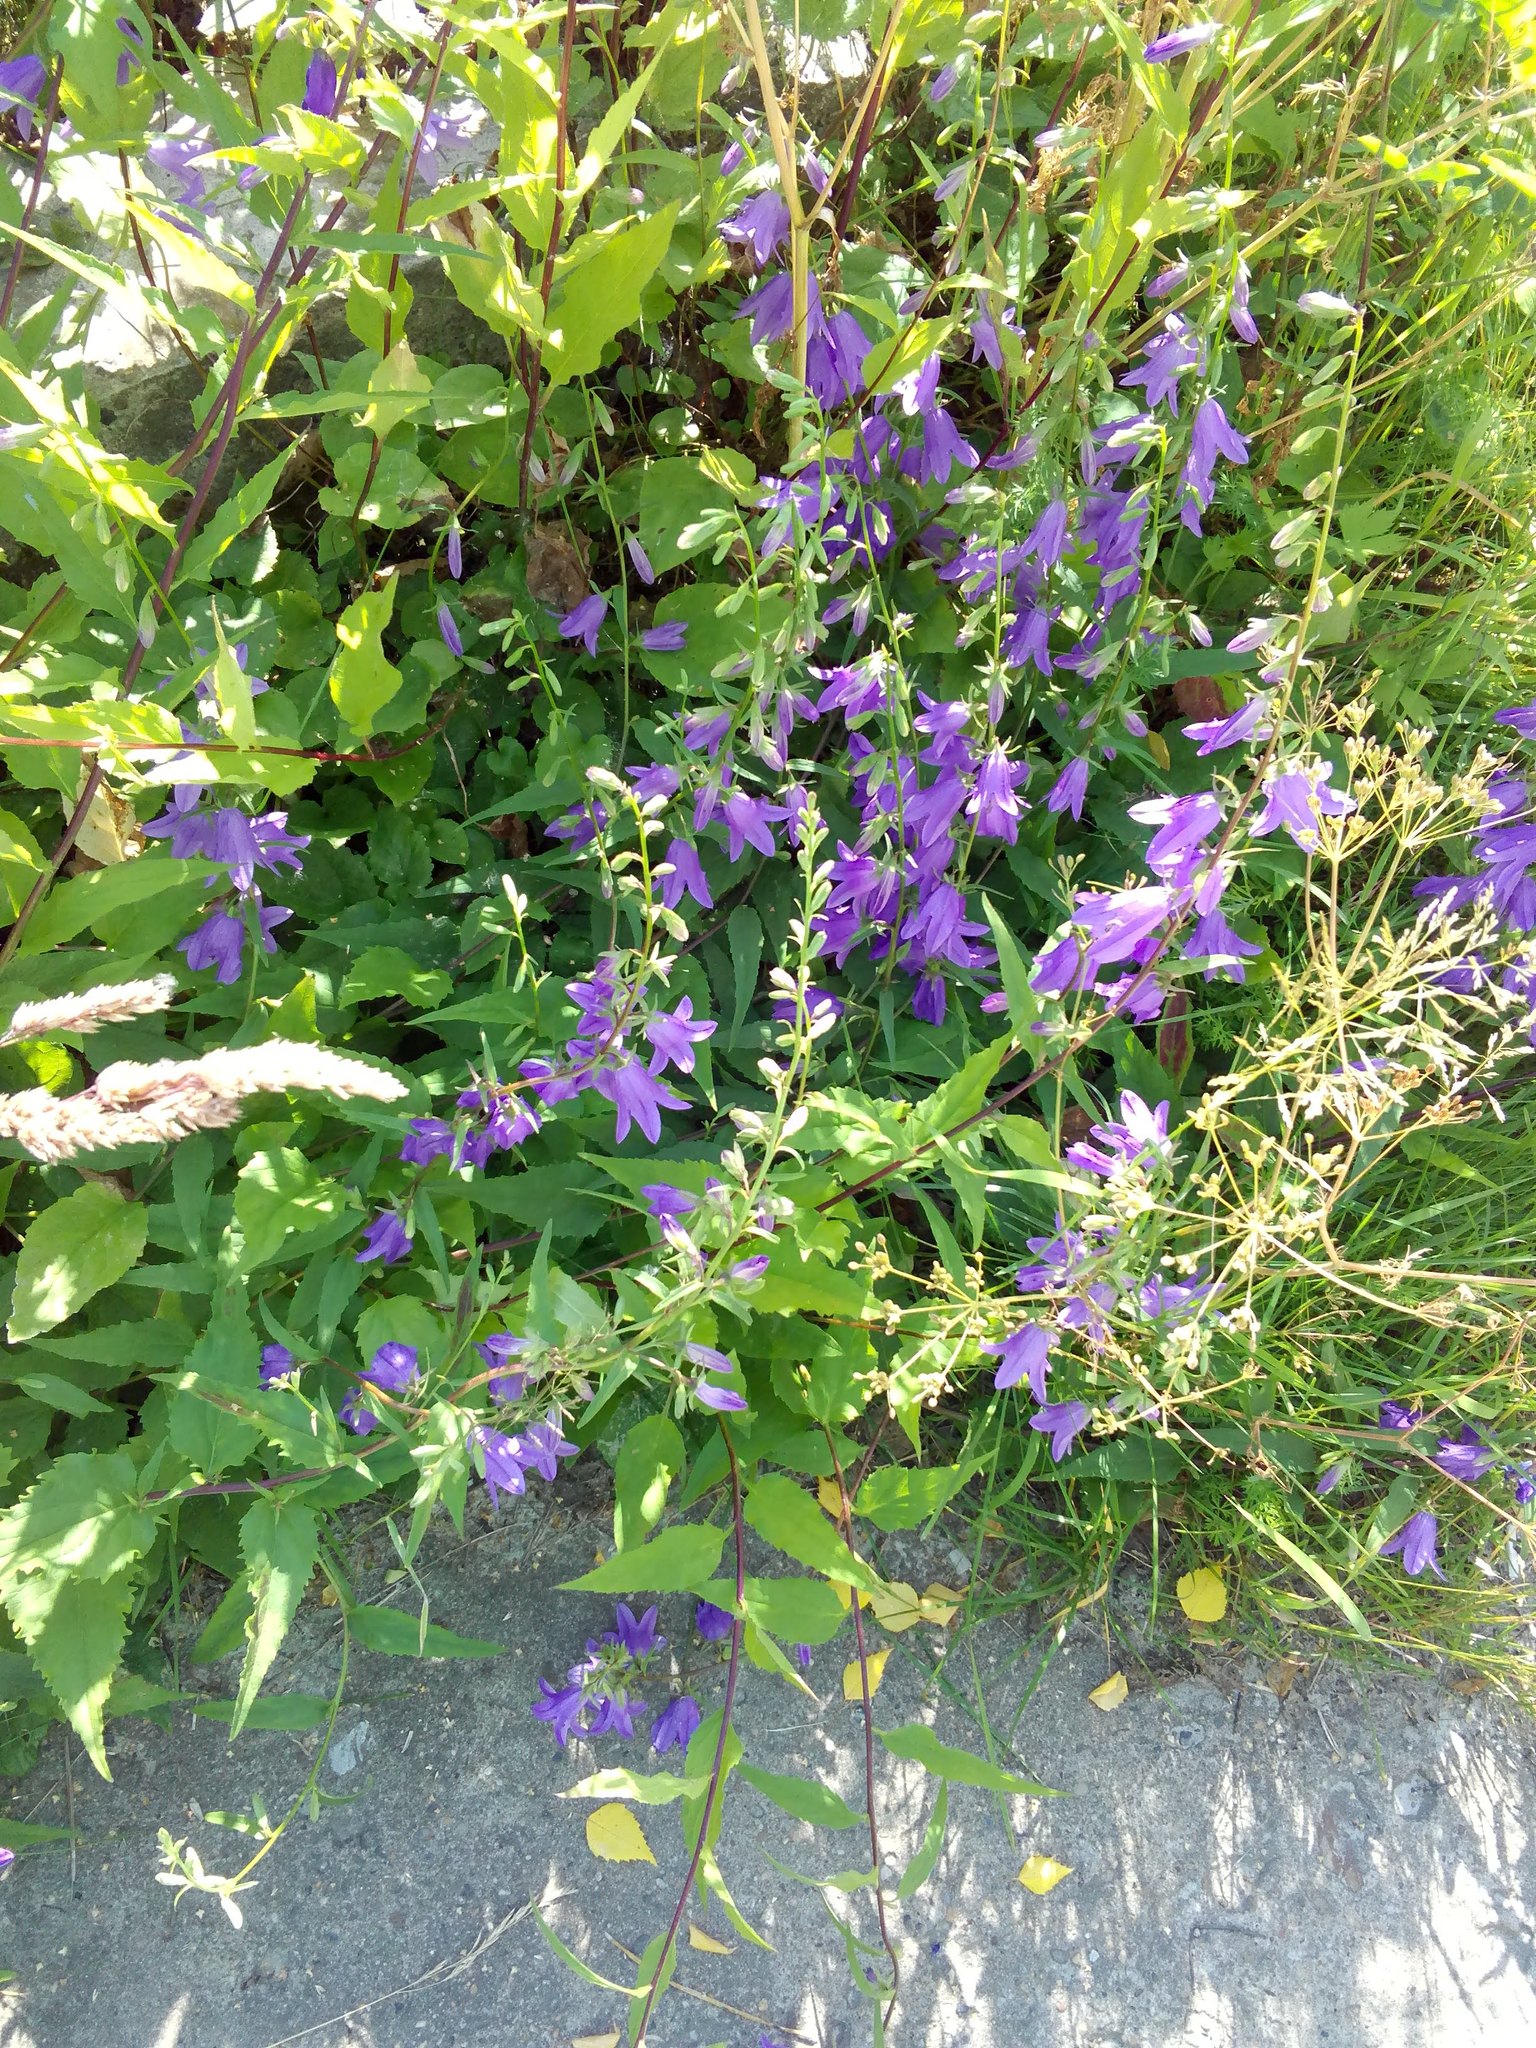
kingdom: Plantae
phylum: Tracheophyta
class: Magnoliopsida
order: Asterales
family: Campanulaceae
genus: Campanula
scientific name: Campanula rapunculoides
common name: Creeping bellflower
